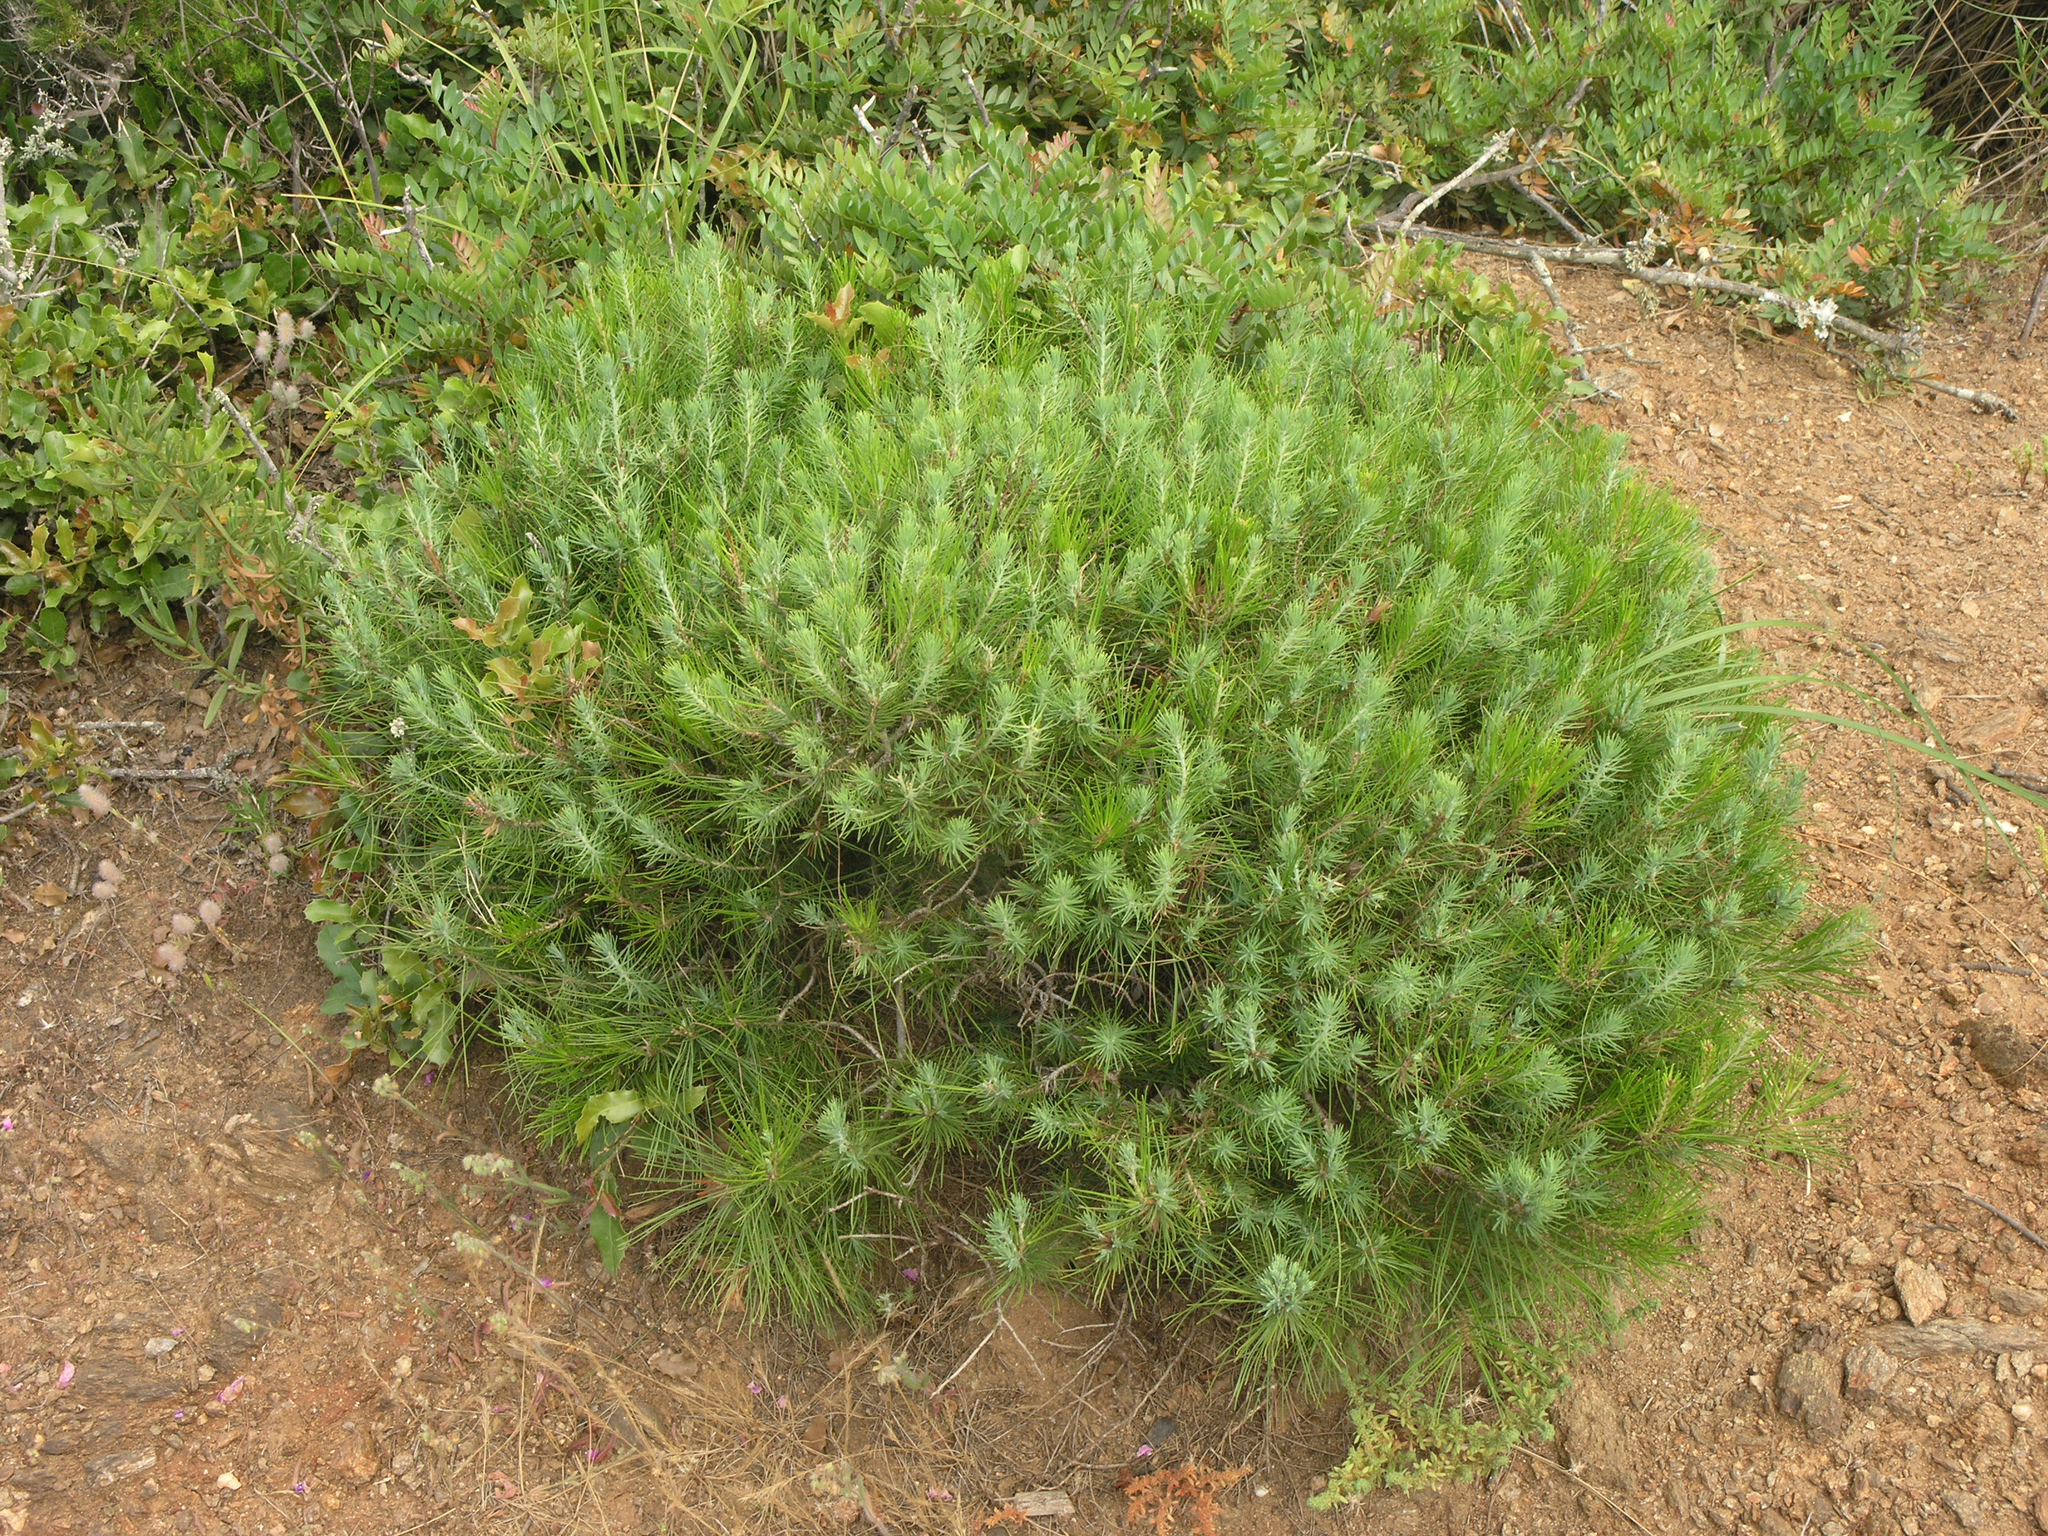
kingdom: Plantae
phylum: Tracheophyta
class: Pinopsida
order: Pinales
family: Pinaceae
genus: Pinus
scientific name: Pinus halepensis
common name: Aleppo pine
